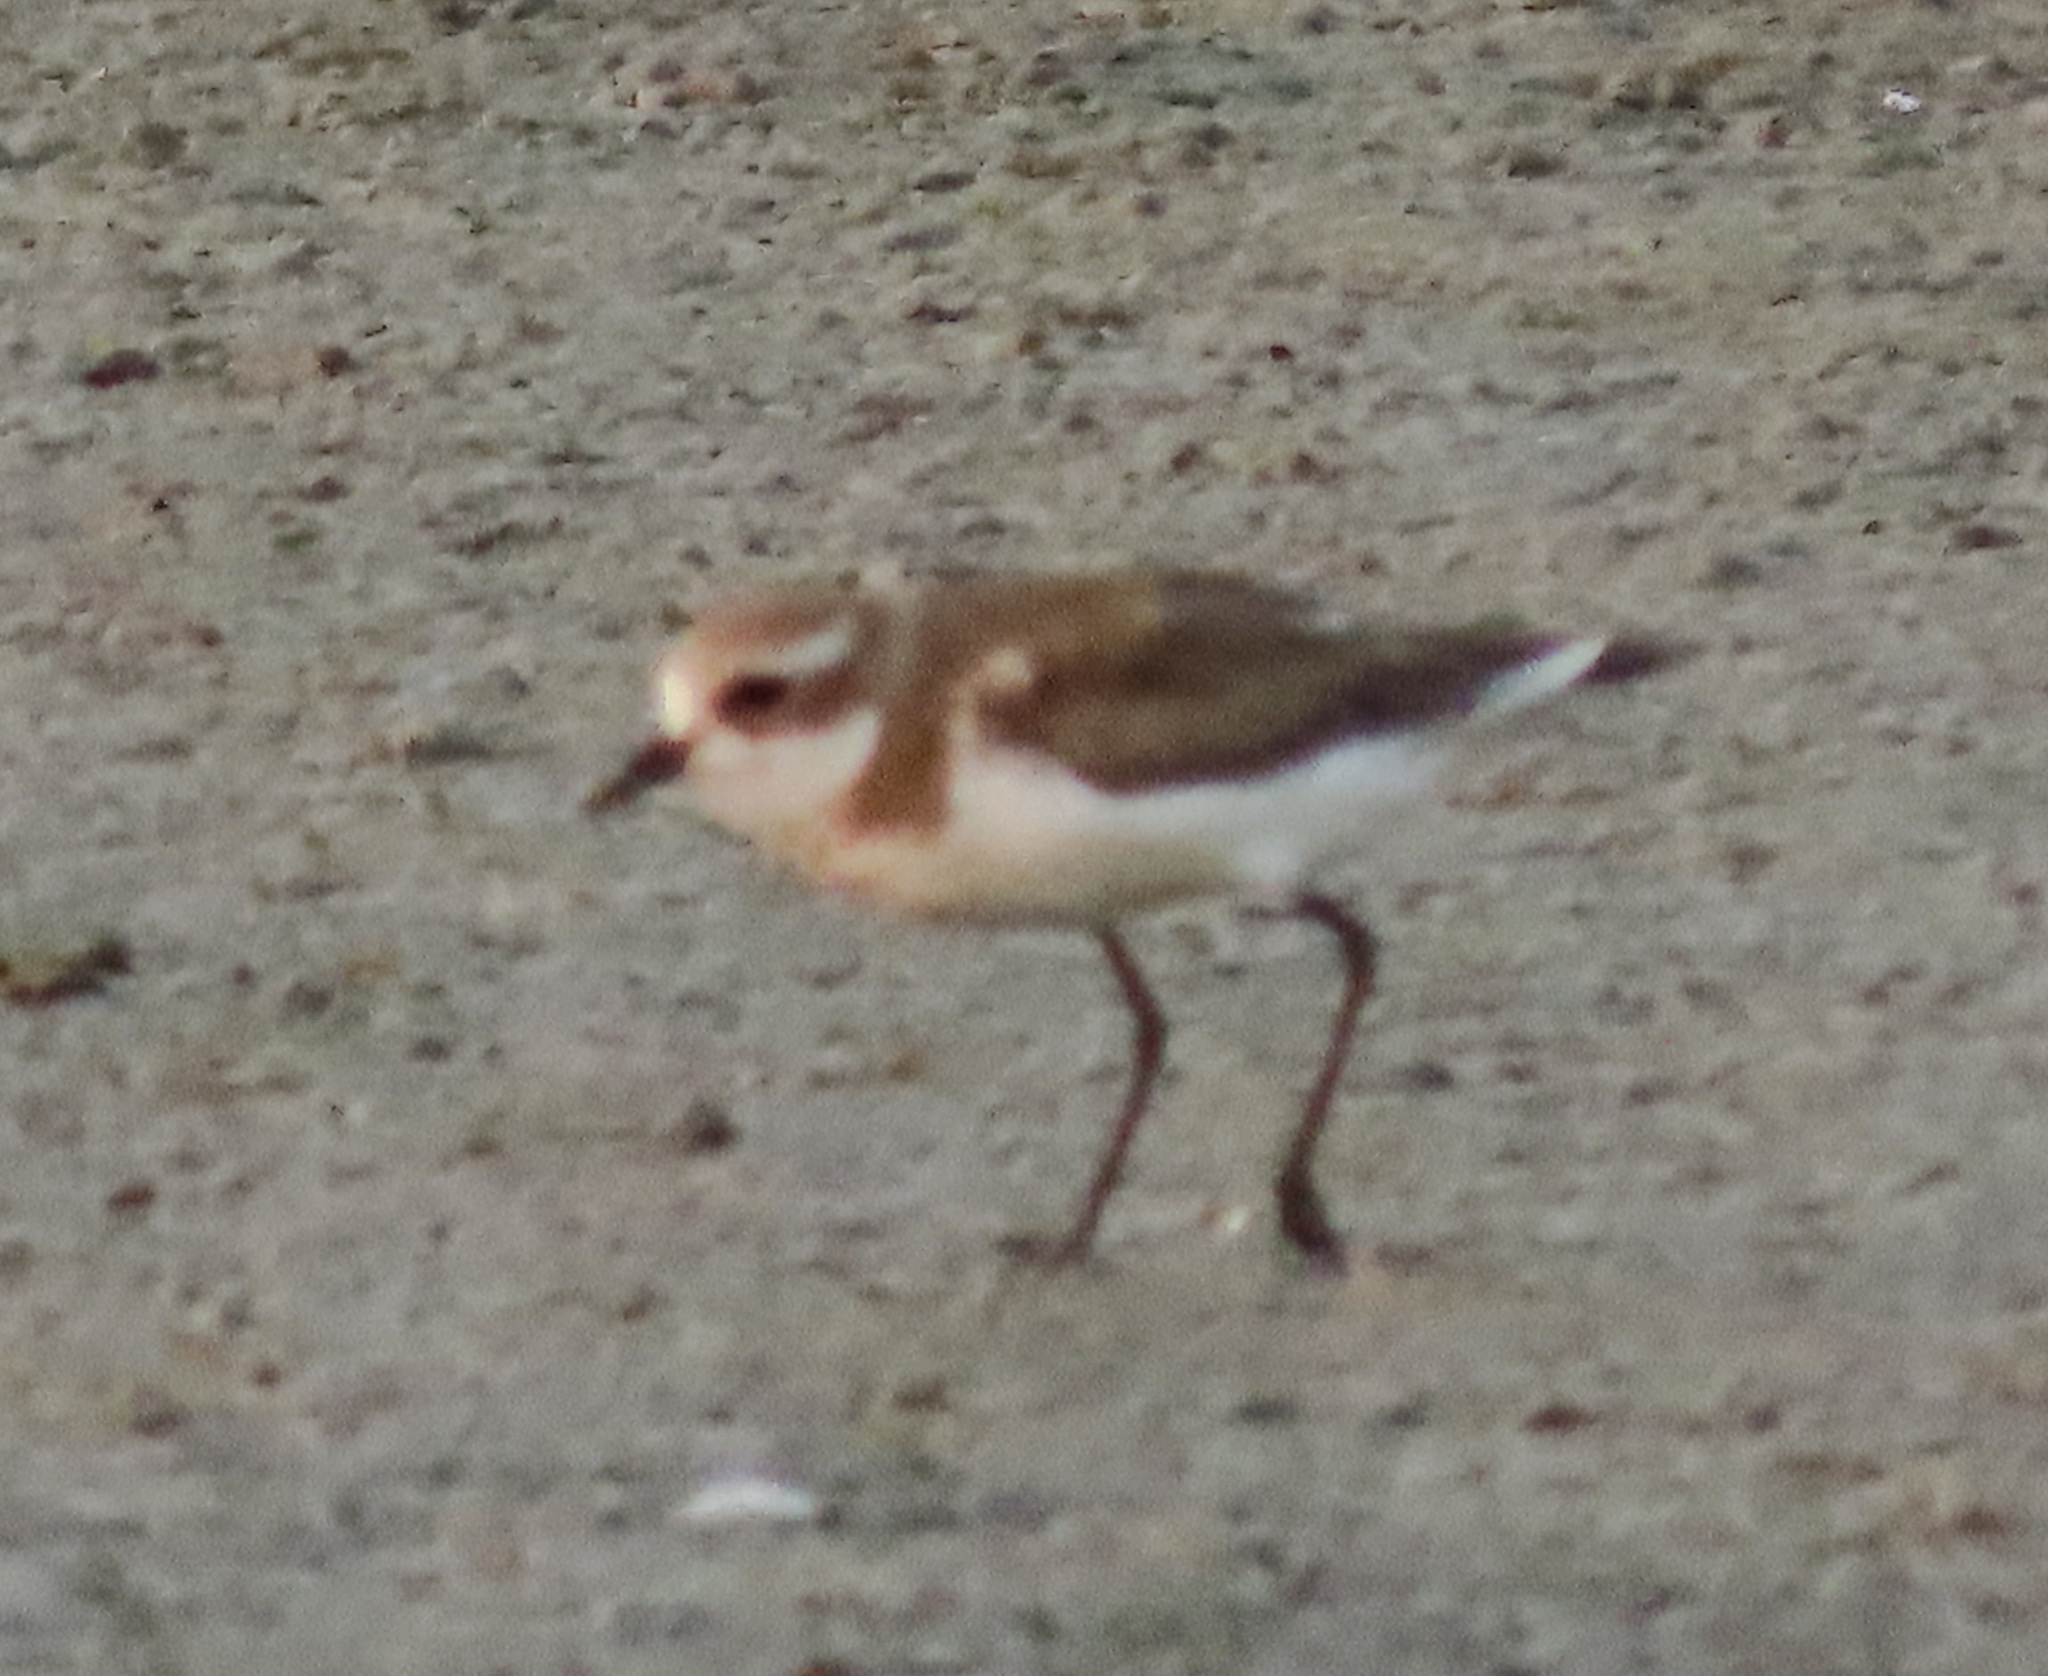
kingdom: Animalia
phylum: Chordata
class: Aves
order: Charadriiformes
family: Charadriidae
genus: Anarhynchus
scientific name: Anarhynchus
